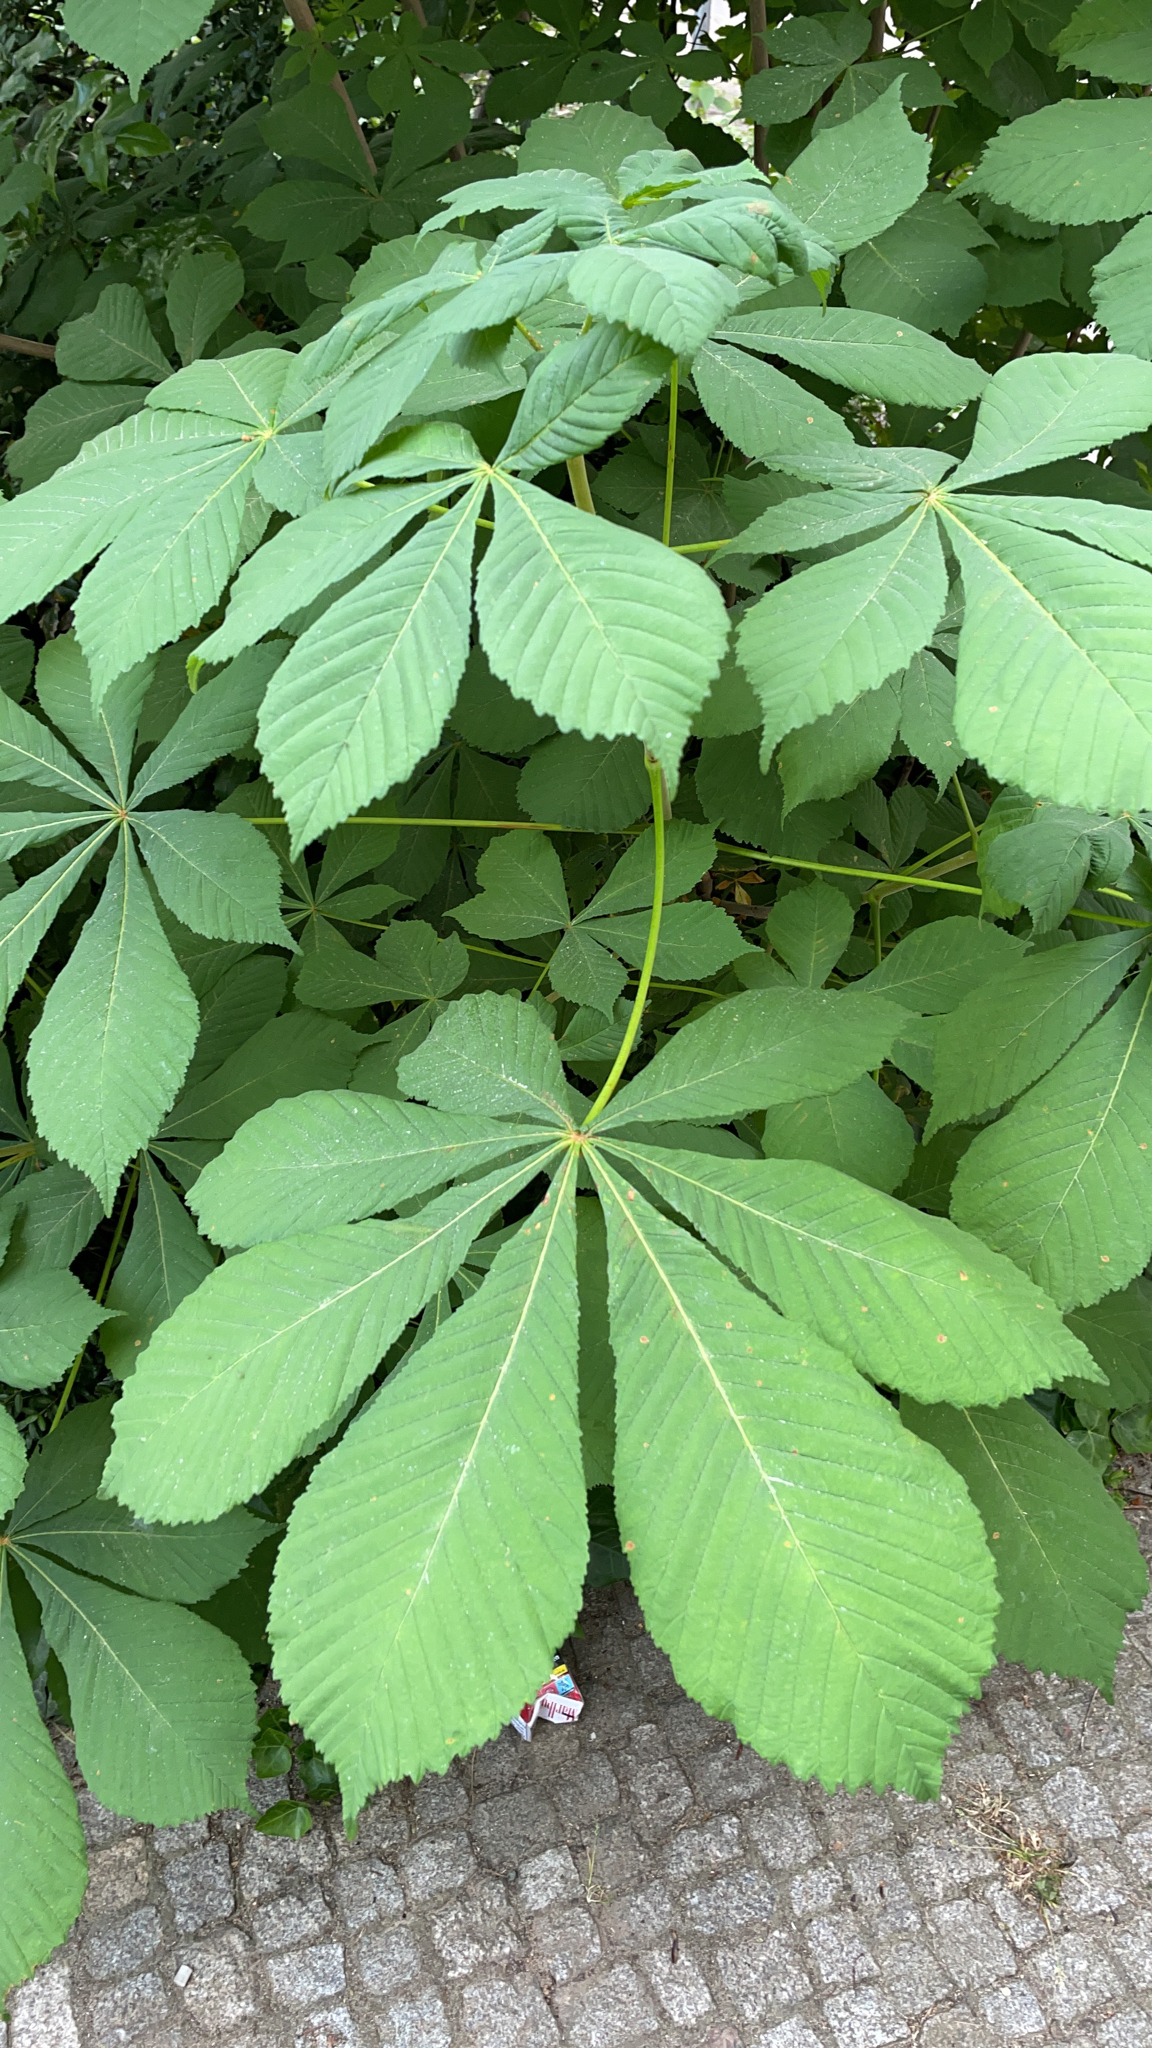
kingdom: Plantae
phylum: Tracheophyta
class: Magnoliopsida
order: Sapindales
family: Sapindaceae
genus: Aesculus
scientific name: Aesculus hippocastanum
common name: Horse-chestnut
